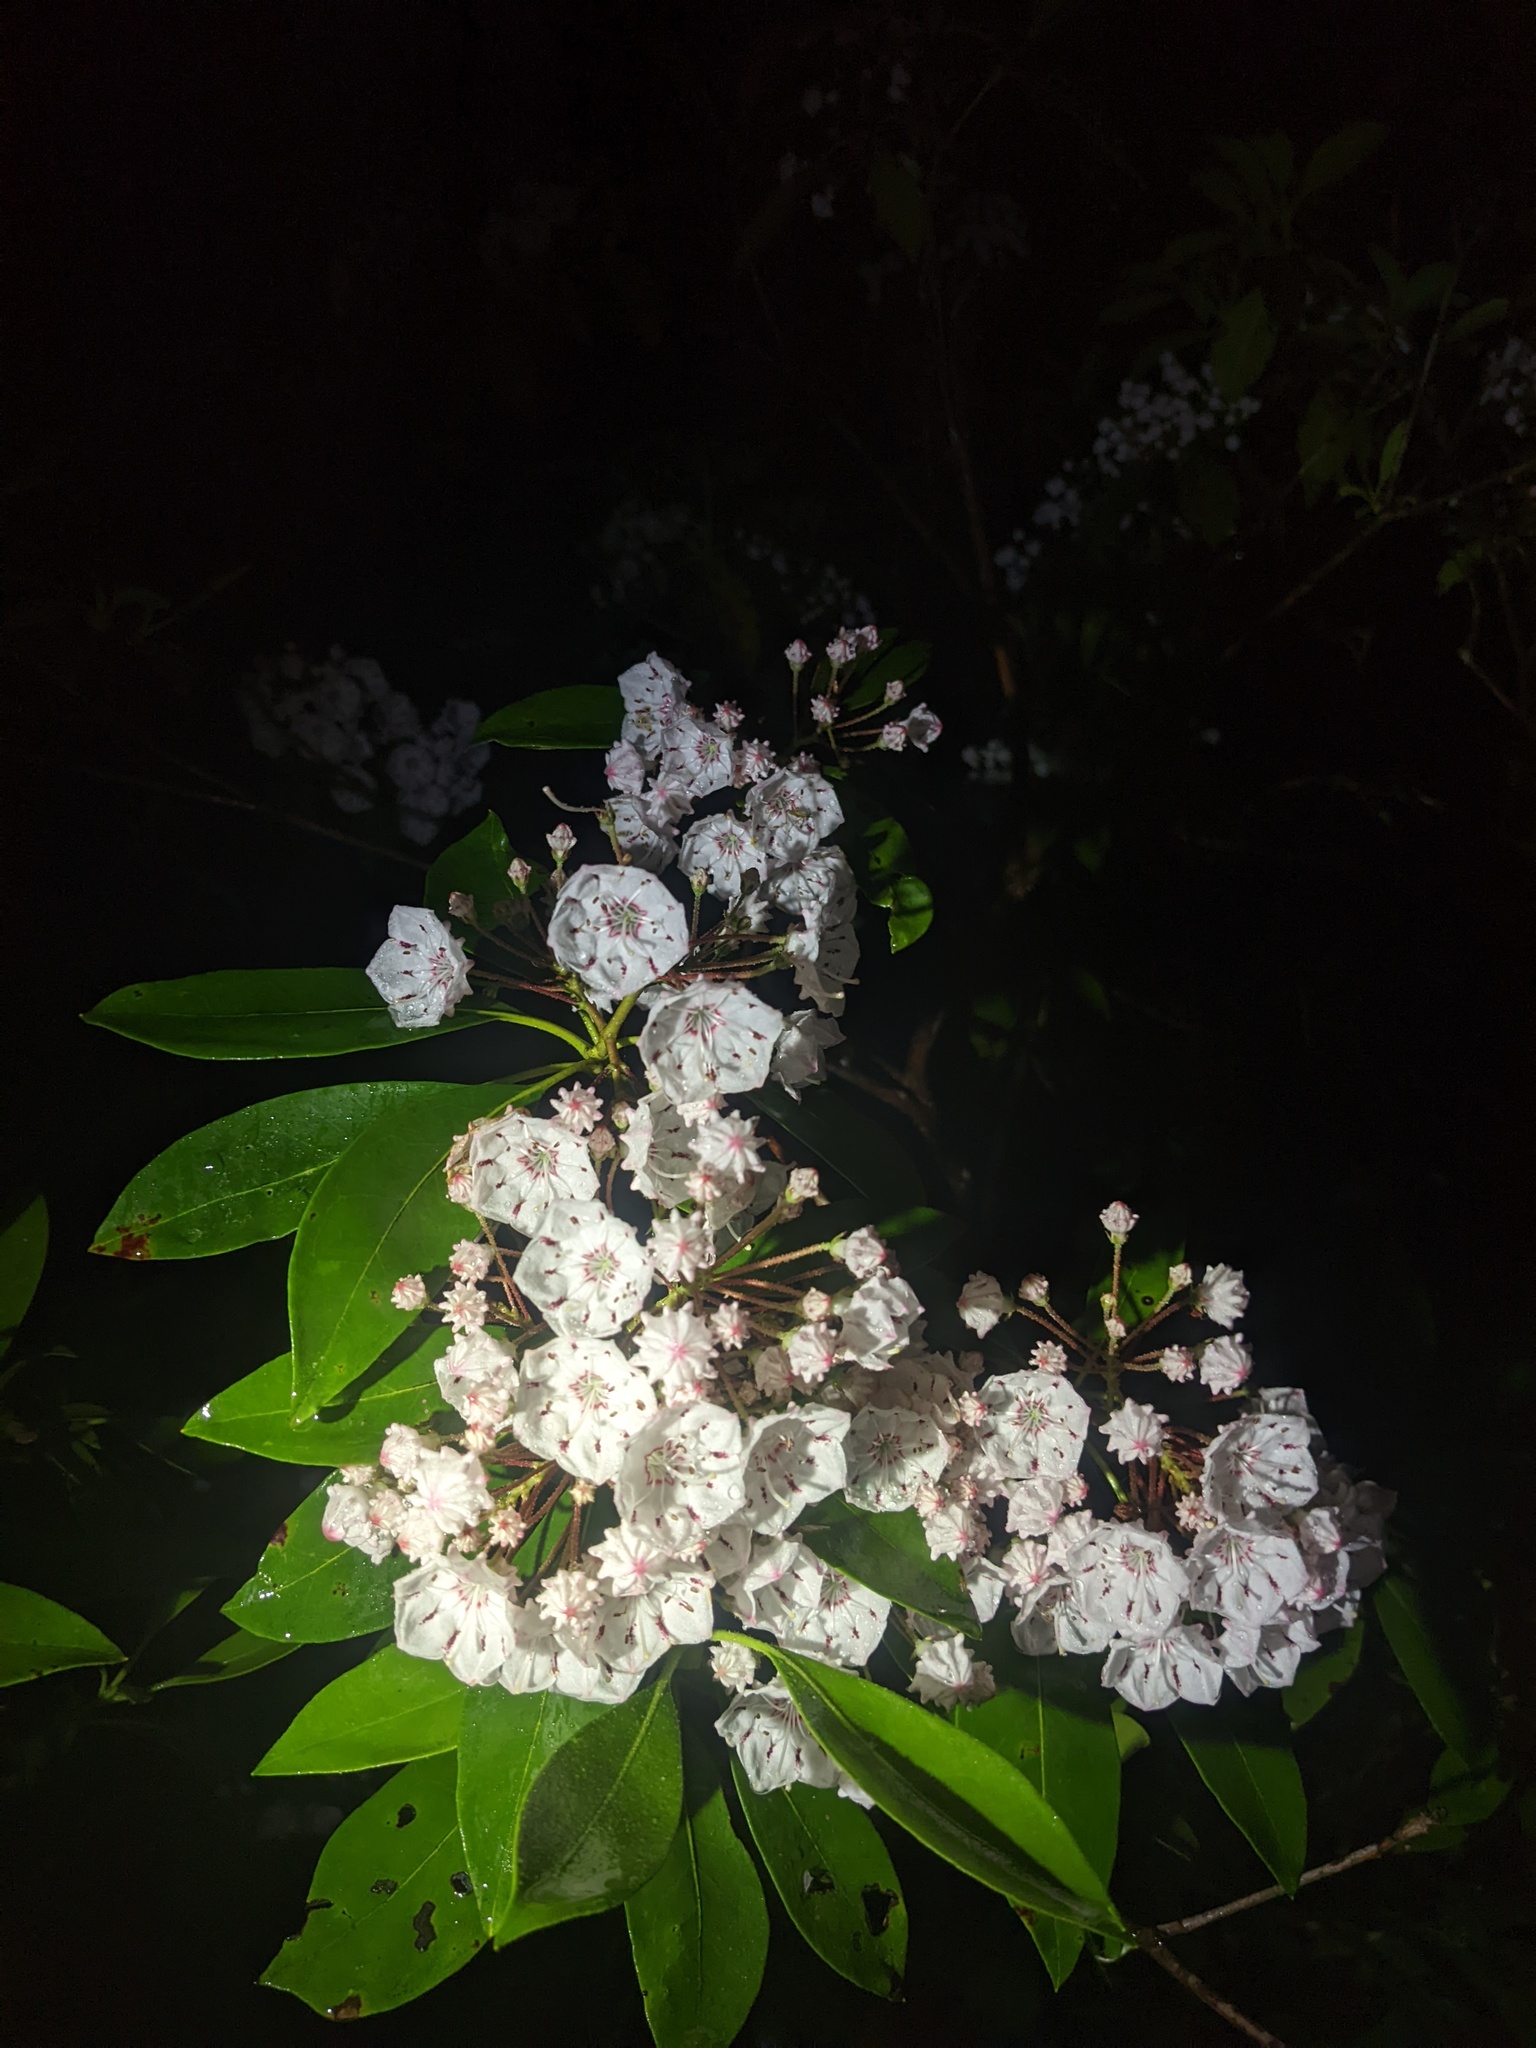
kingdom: Plantae
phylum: Tracheophyta
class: Magnoliopsida
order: Ericales
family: Ericaceae
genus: Kalmia
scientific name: Kalmia latifolia
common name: Mountain-laurel
